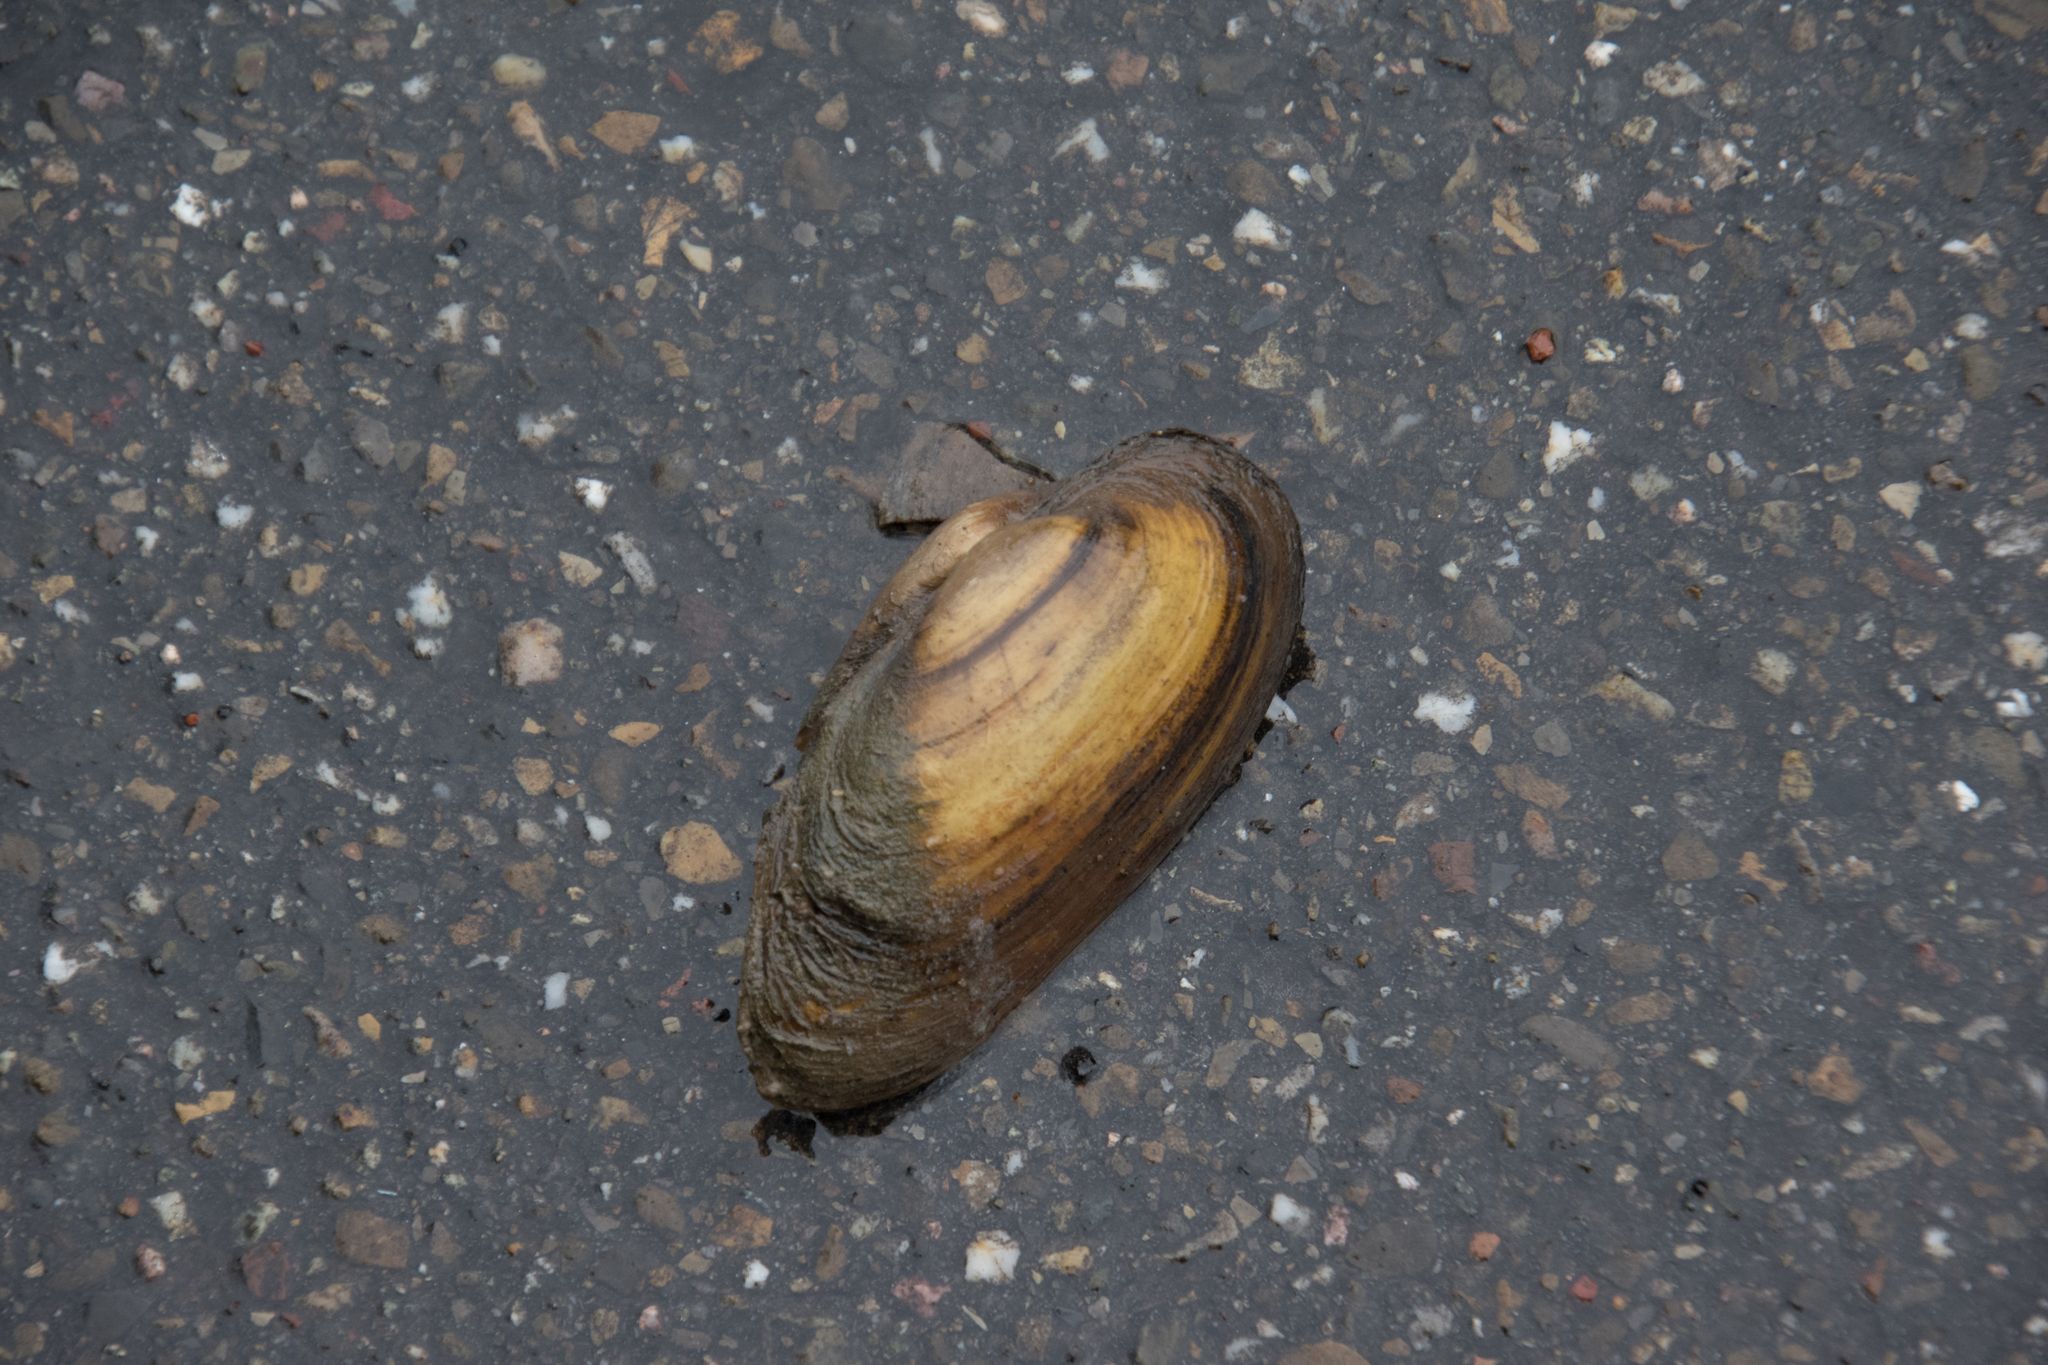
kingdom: Animalia
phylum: Mollusca
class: Bivalvia
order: Unionida
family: Unionidae
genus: Unio
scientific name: Unio pictorum
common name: Painter's mussel
